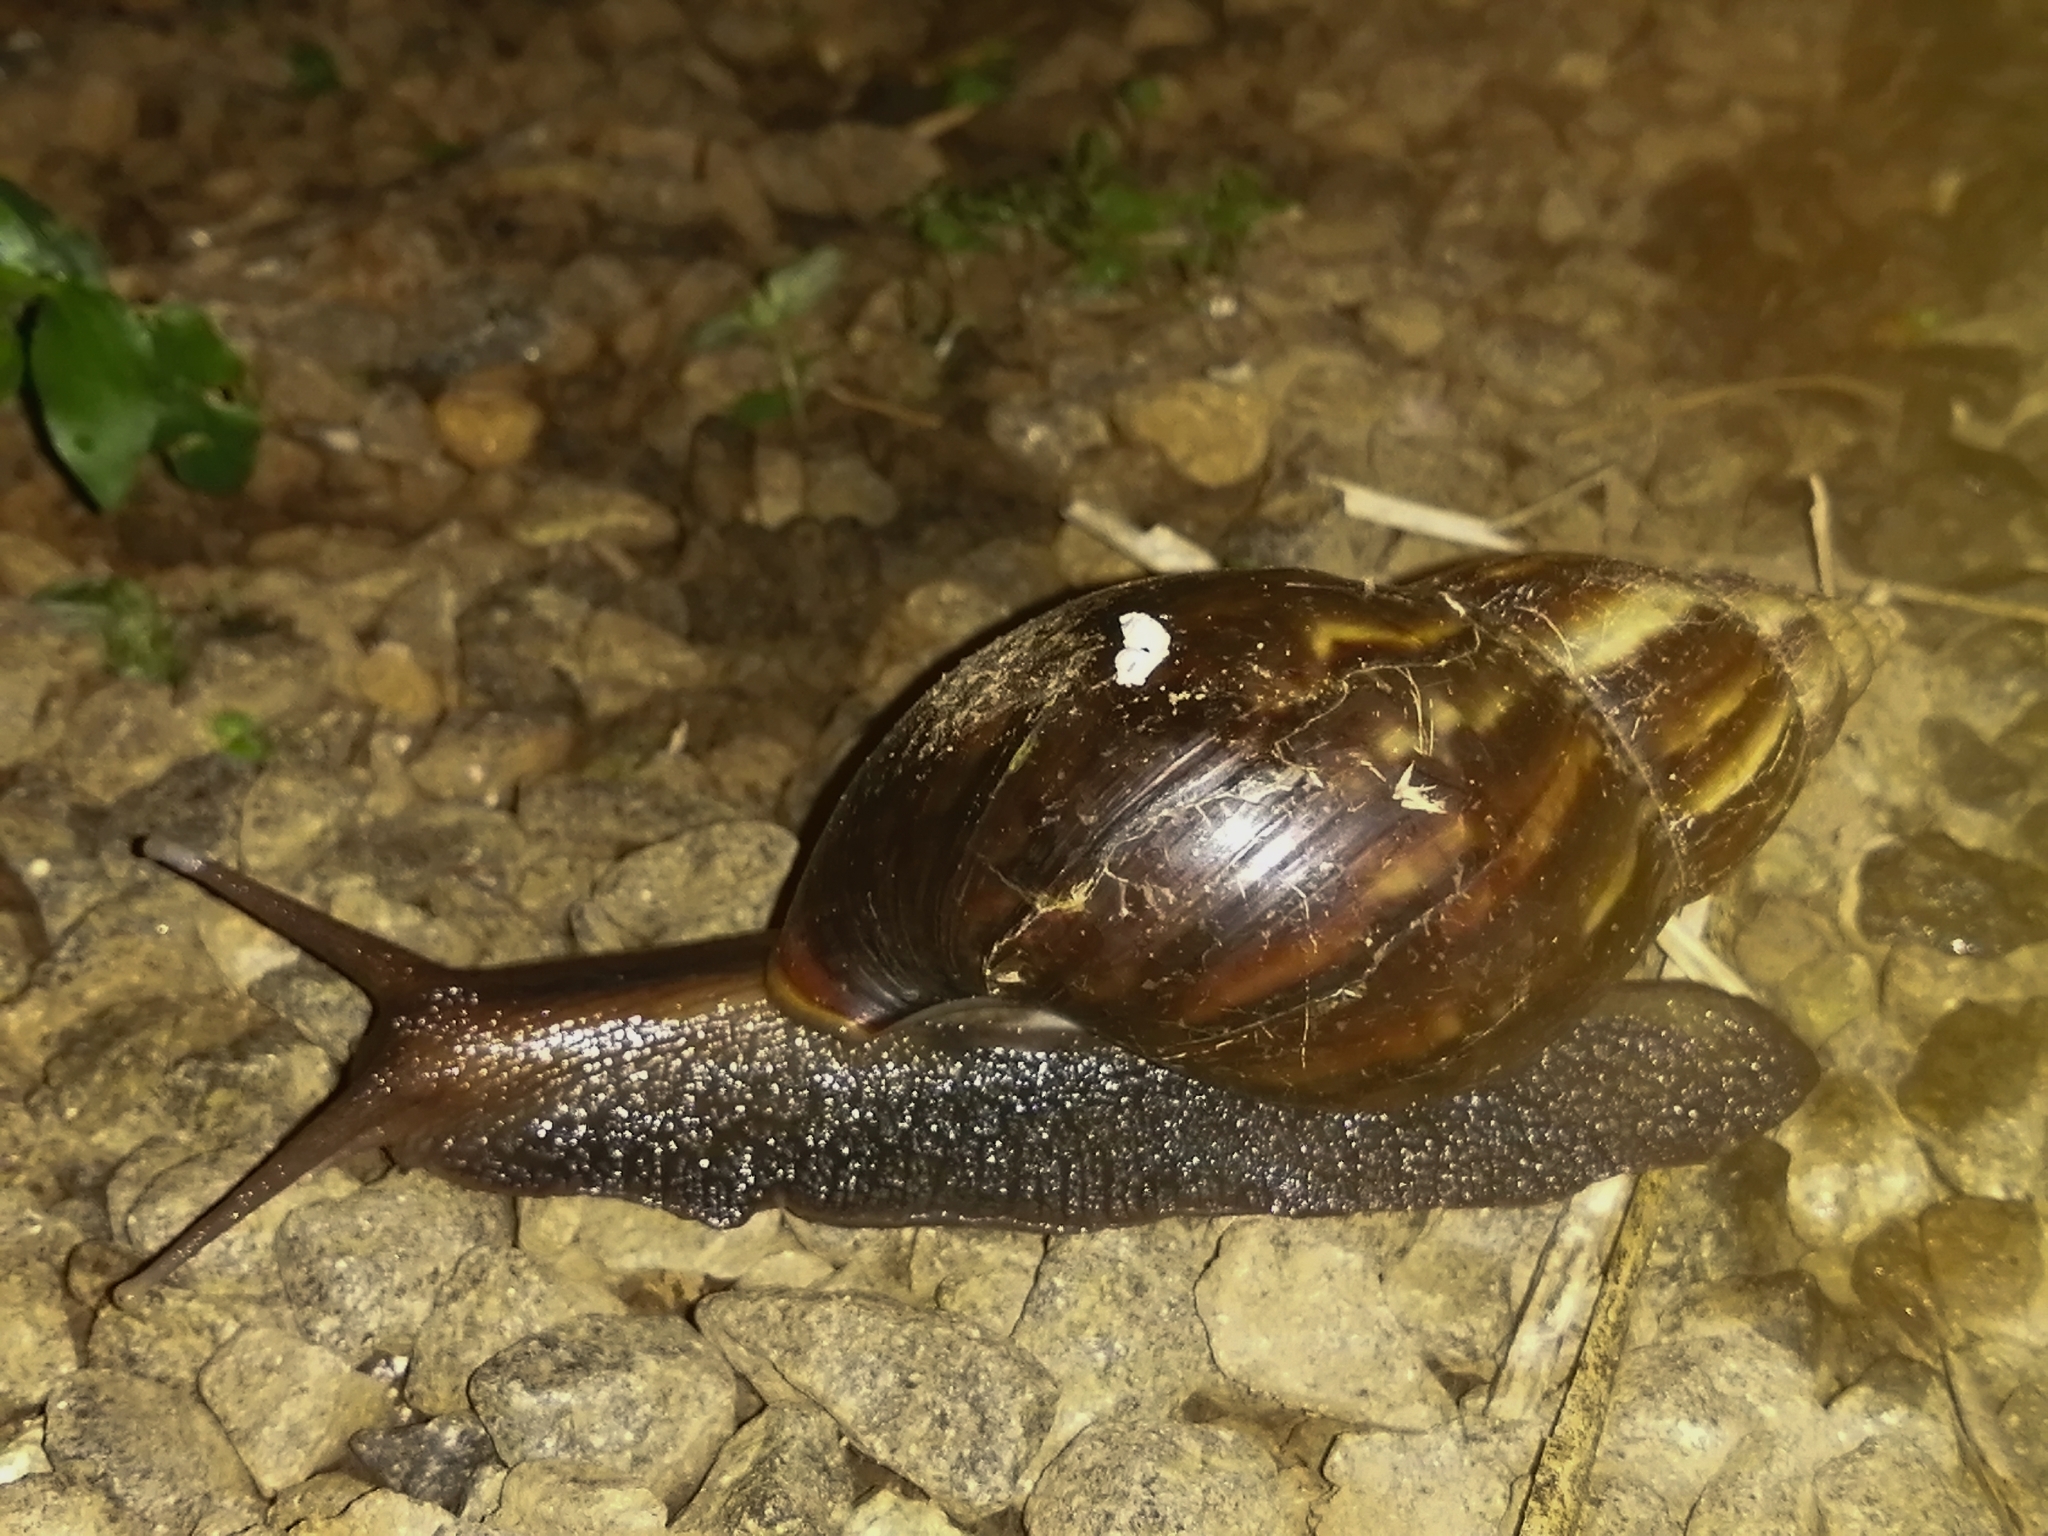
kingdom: Animalia
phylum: Mollusca
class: Gastropoda
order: Stylommatophora
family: Achatinidae
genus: Lissachatina
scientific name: Lissachatina fulica
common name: Giant african snail
